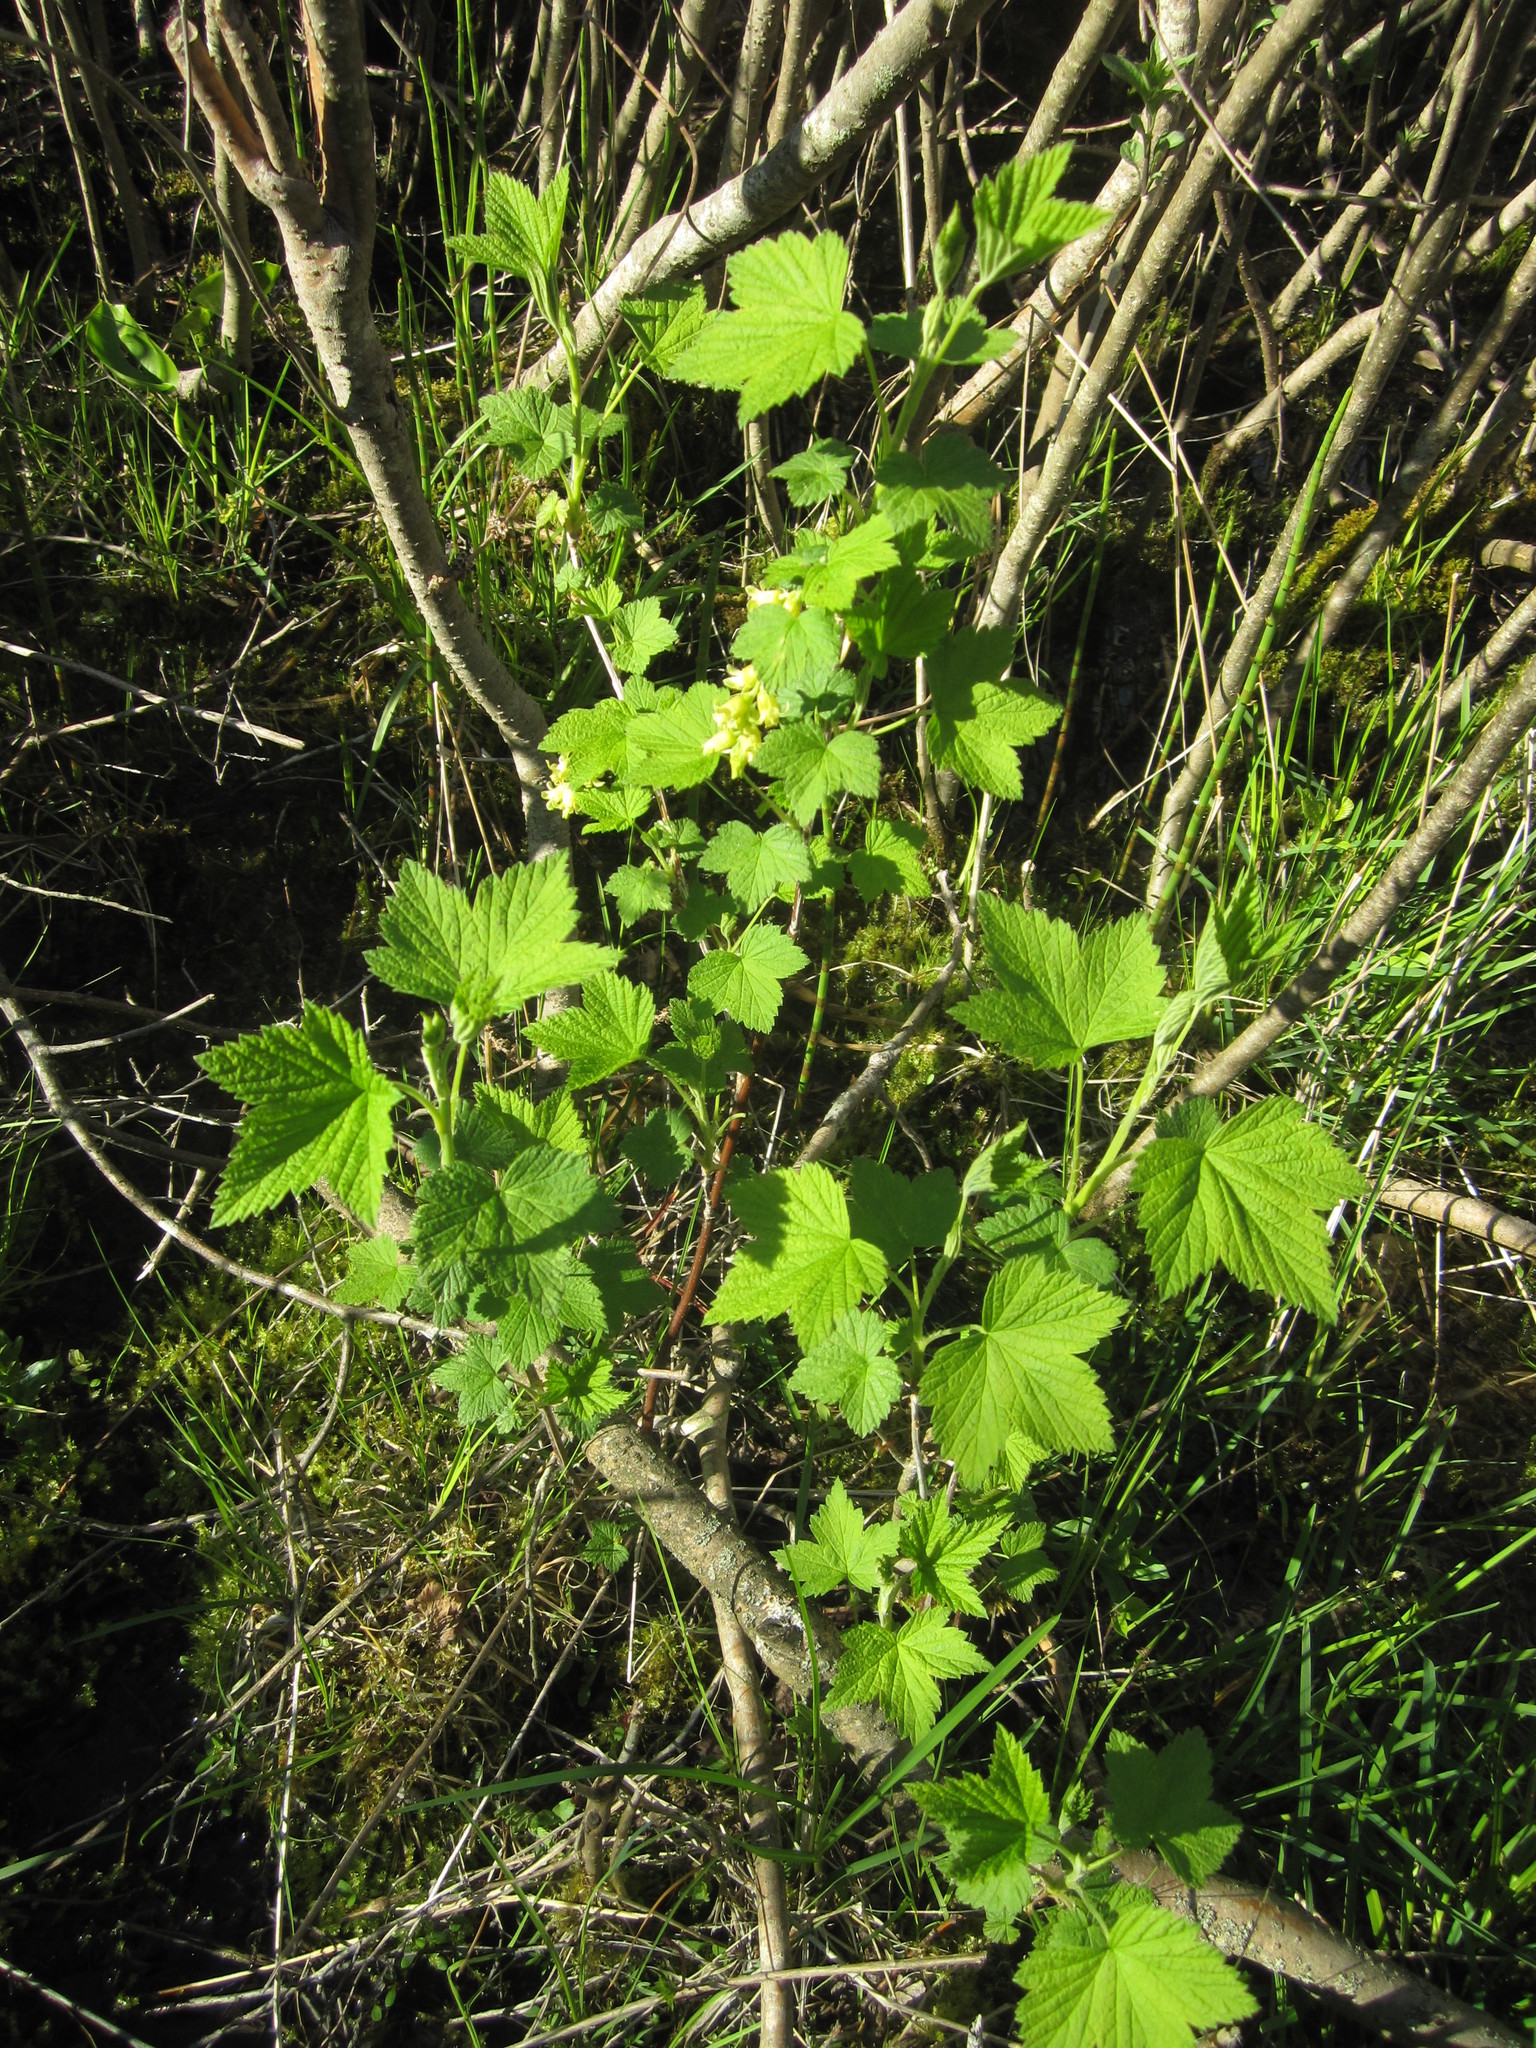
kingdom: Plantae
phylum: Tracheophyta
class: Magnoliopsida
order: Saxifragales
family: Grossulariaceae
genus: Ribes
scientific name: Ribes missouriense
